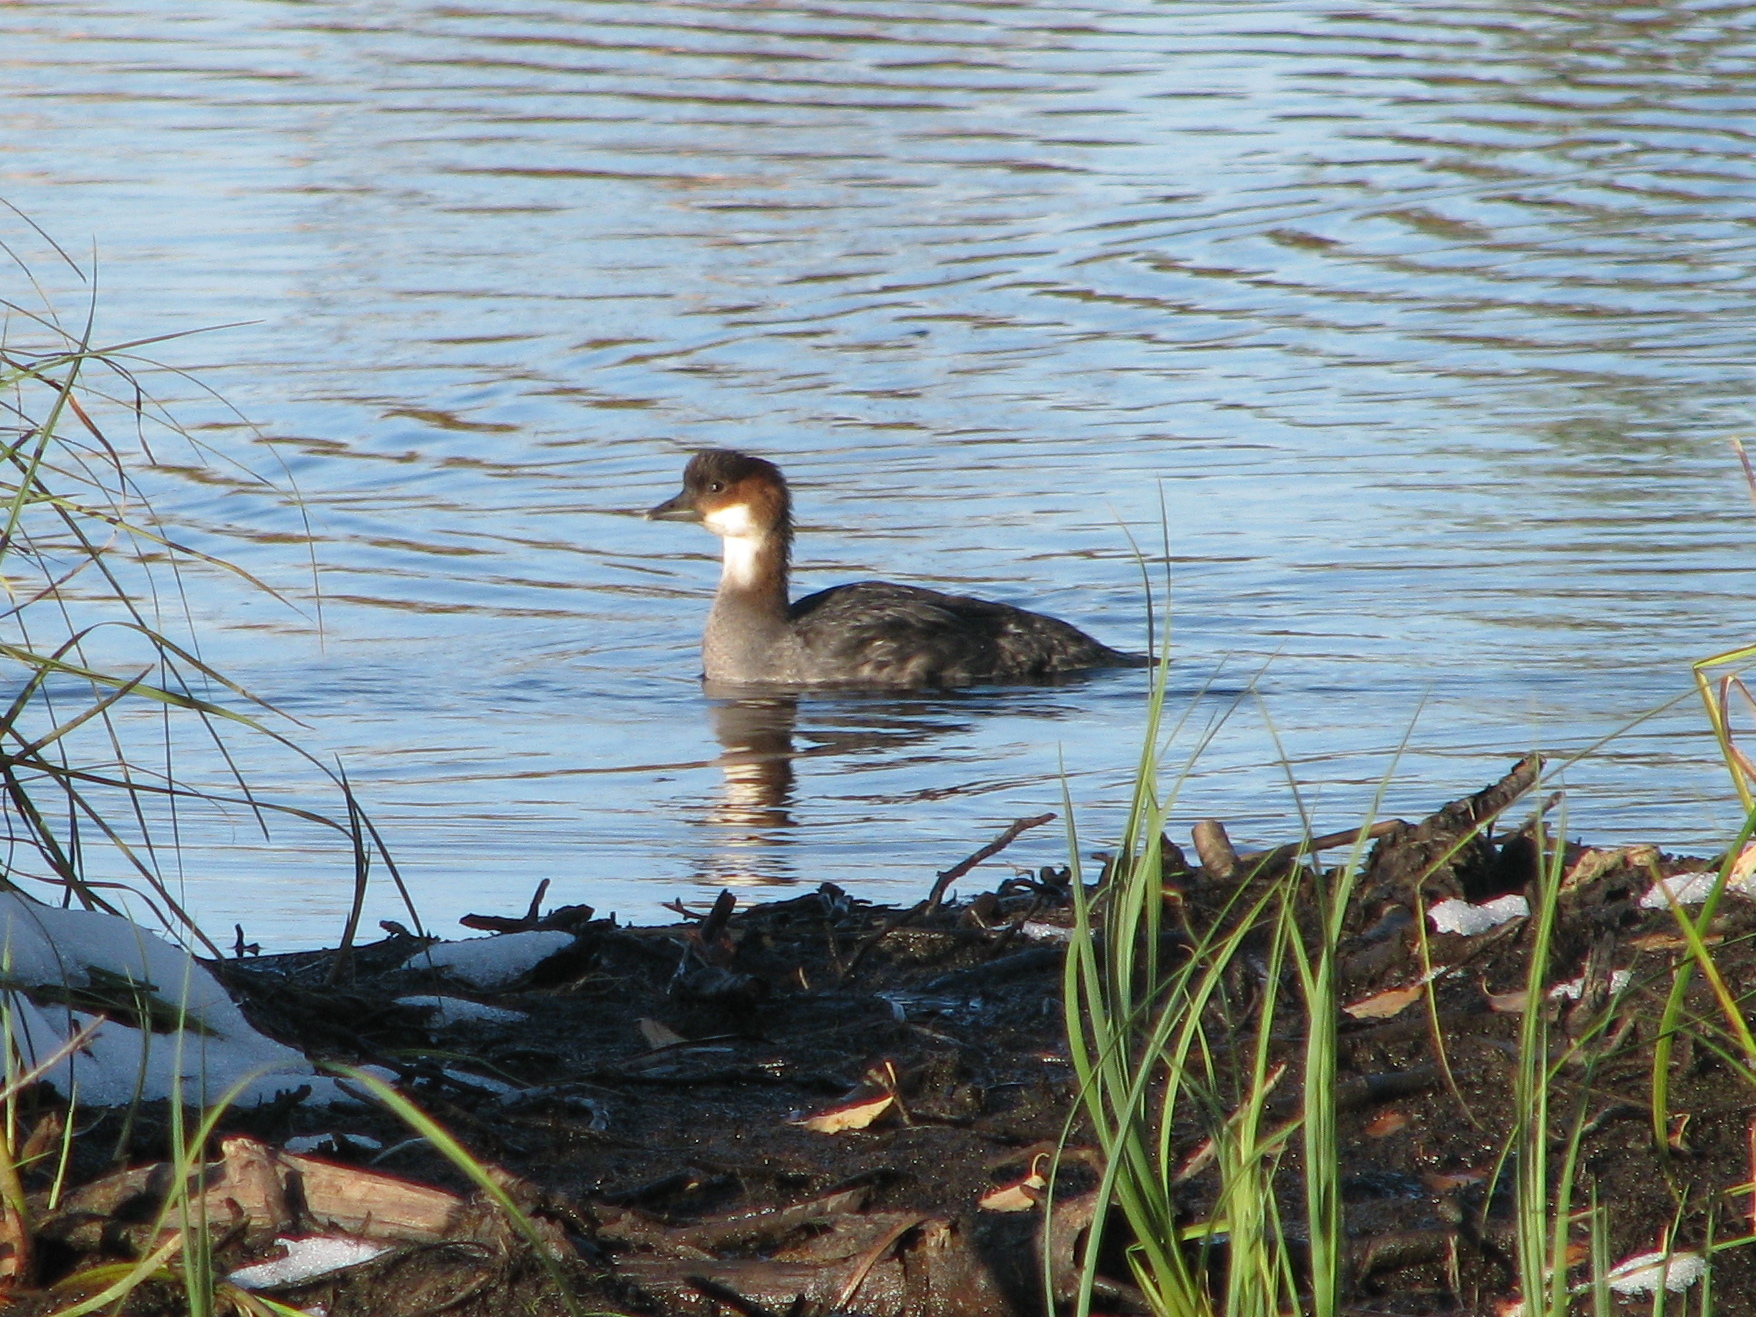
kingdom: Animalia
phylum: Chordata
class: Aves
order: Anseriformes
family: Anatidae
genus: Mergellus
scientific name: Mergellus albellus
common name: Smew
